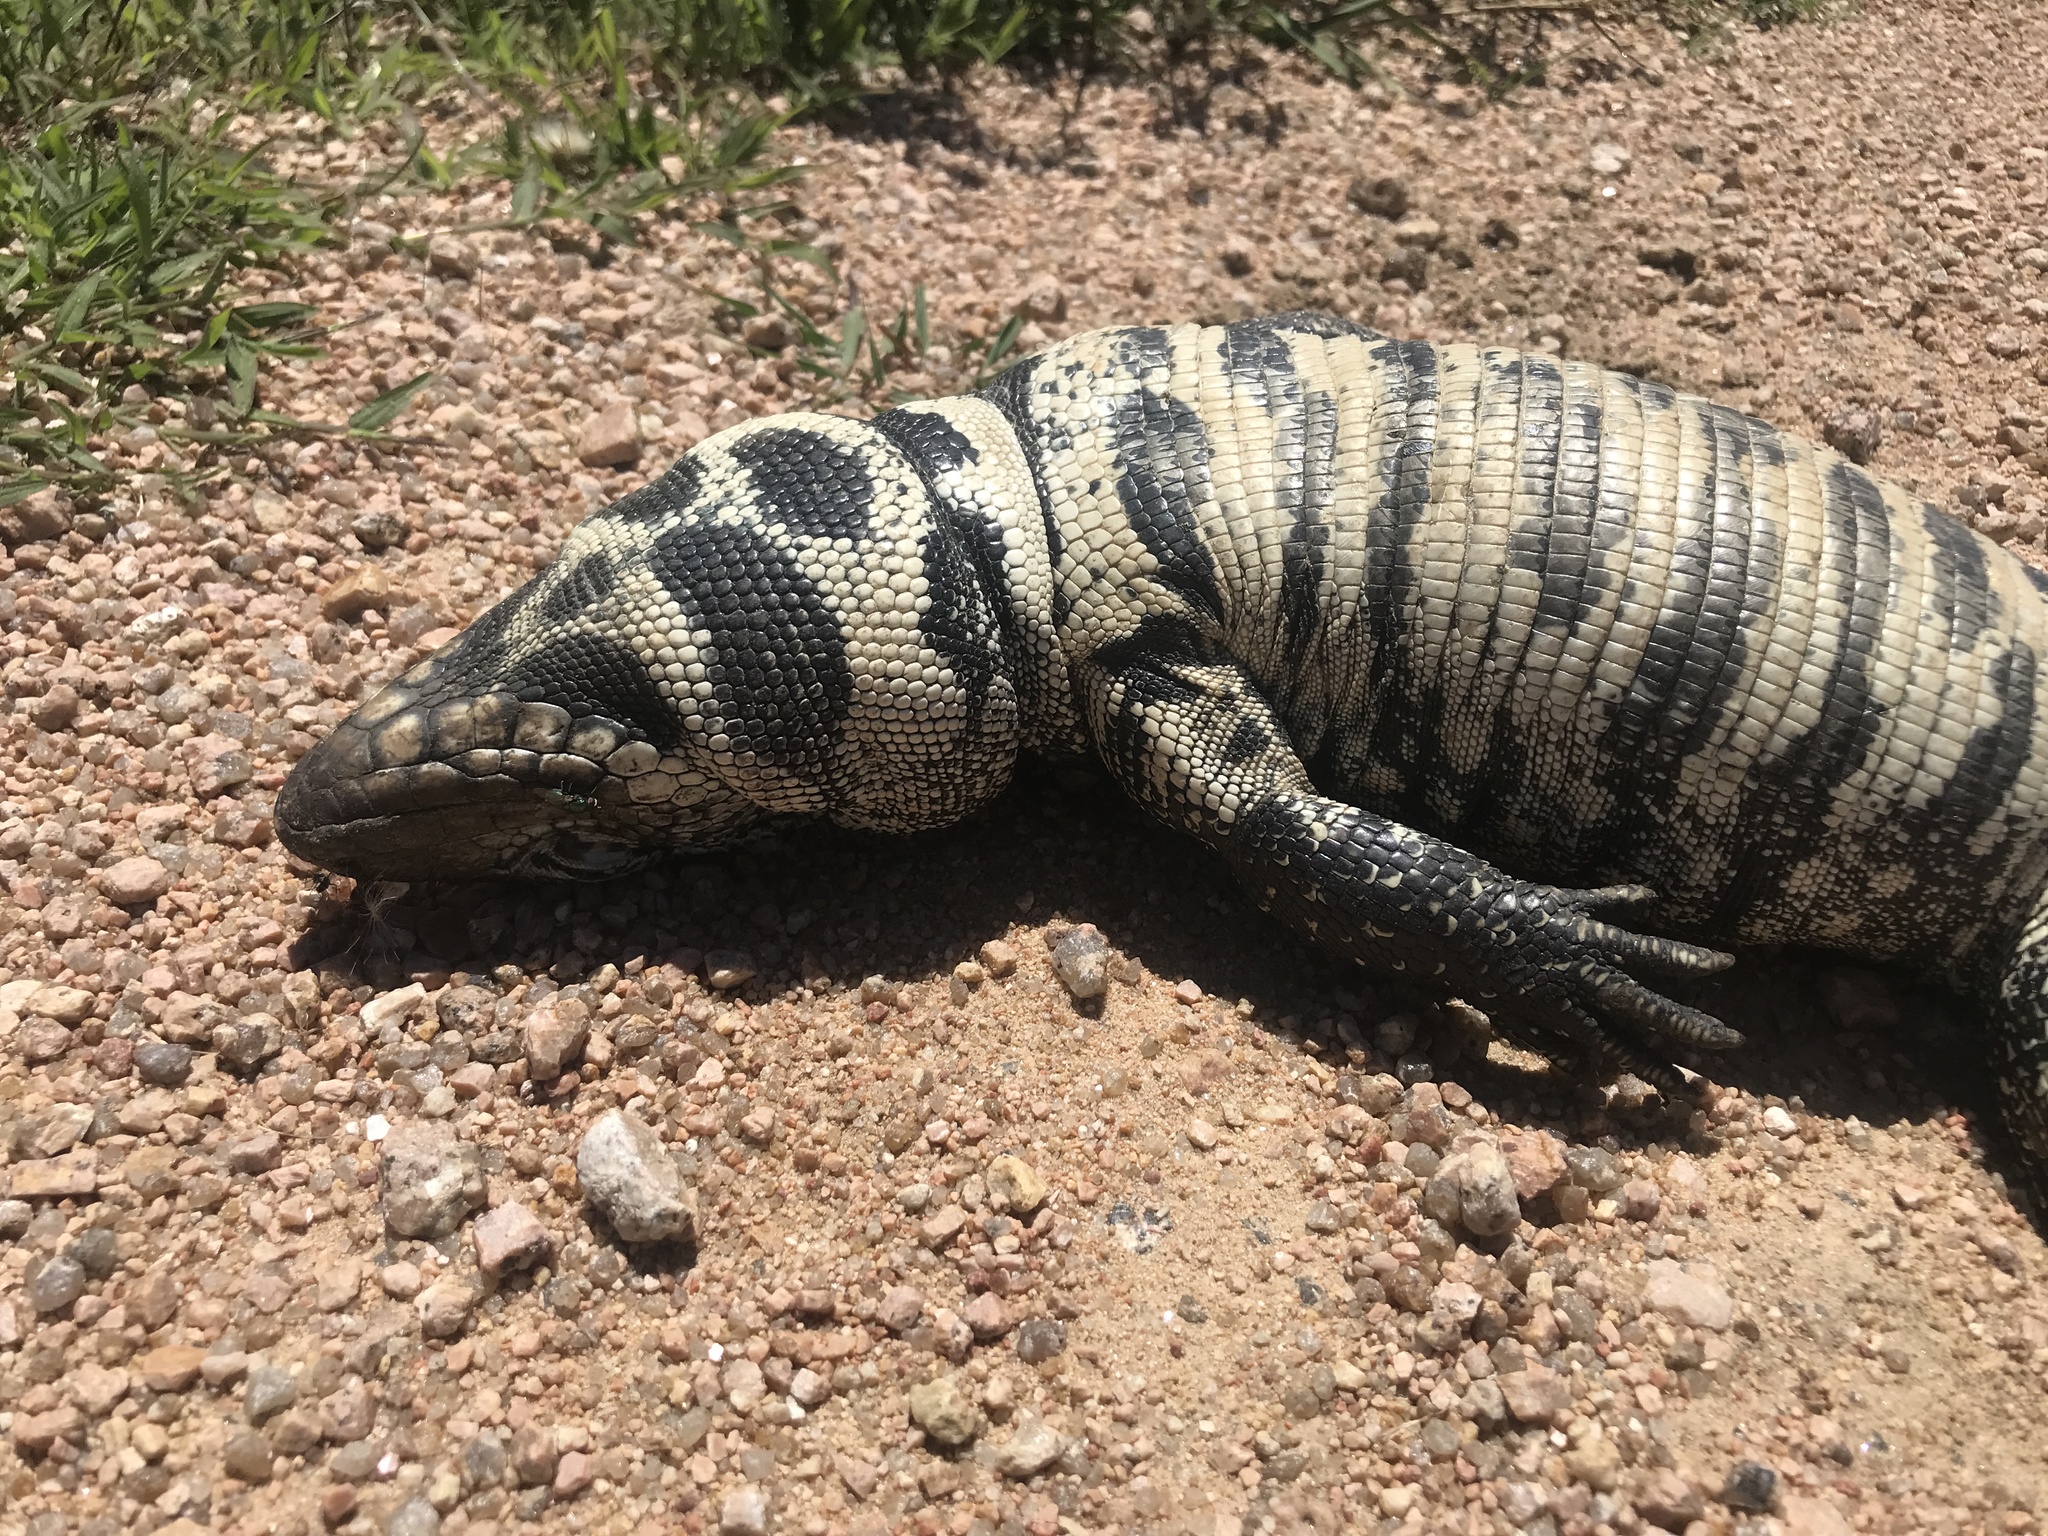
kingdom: Animalia
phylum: Chordata
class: Squamata
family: Teiidae
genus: Salvator
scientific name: Salvator merianae
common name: Argentine black and white tegu
